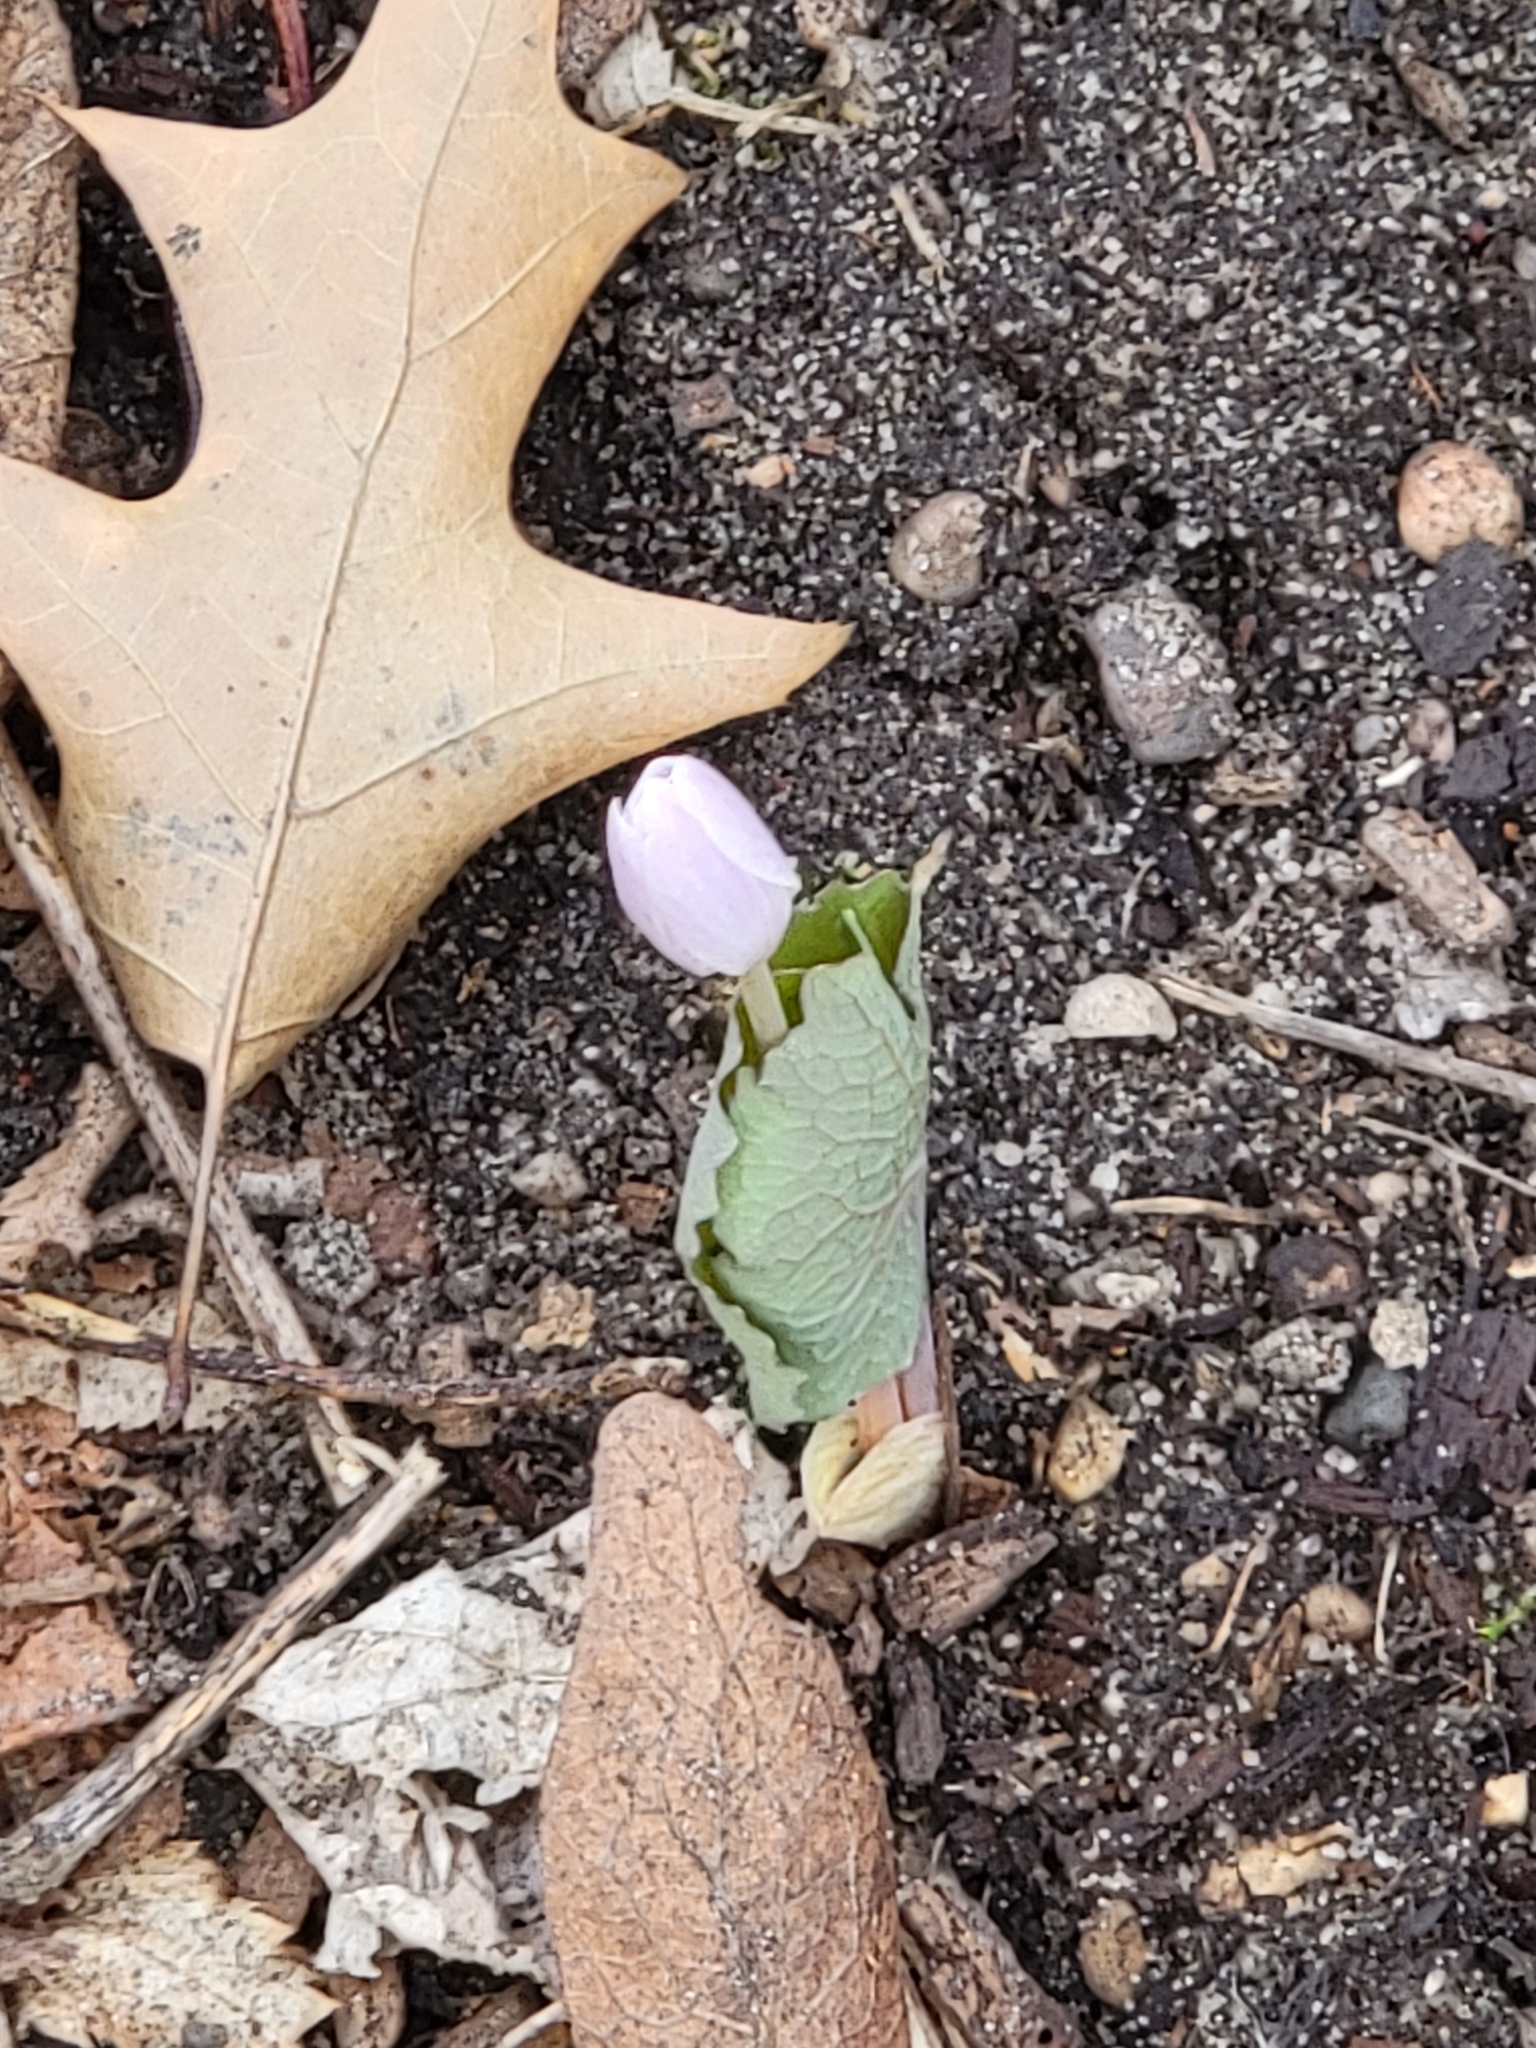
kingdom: Plantae
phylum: Tracheophyta
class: Magnoliopsida
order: Ranunculales
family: Papaveraceae
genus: Sanguinaria
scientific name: Sanguinaria canadensis
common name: Bloodroot
